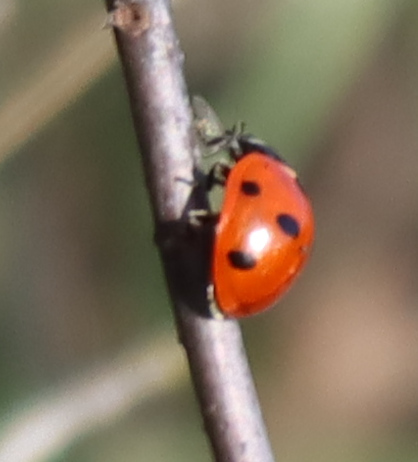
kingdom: Animalia
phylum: Arthropoda
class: Insecta
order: Coleoptera
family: Coccinellidae
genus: Coccinella
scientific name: Coccinella septempunctata
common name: Sevenspotted lady beetle
